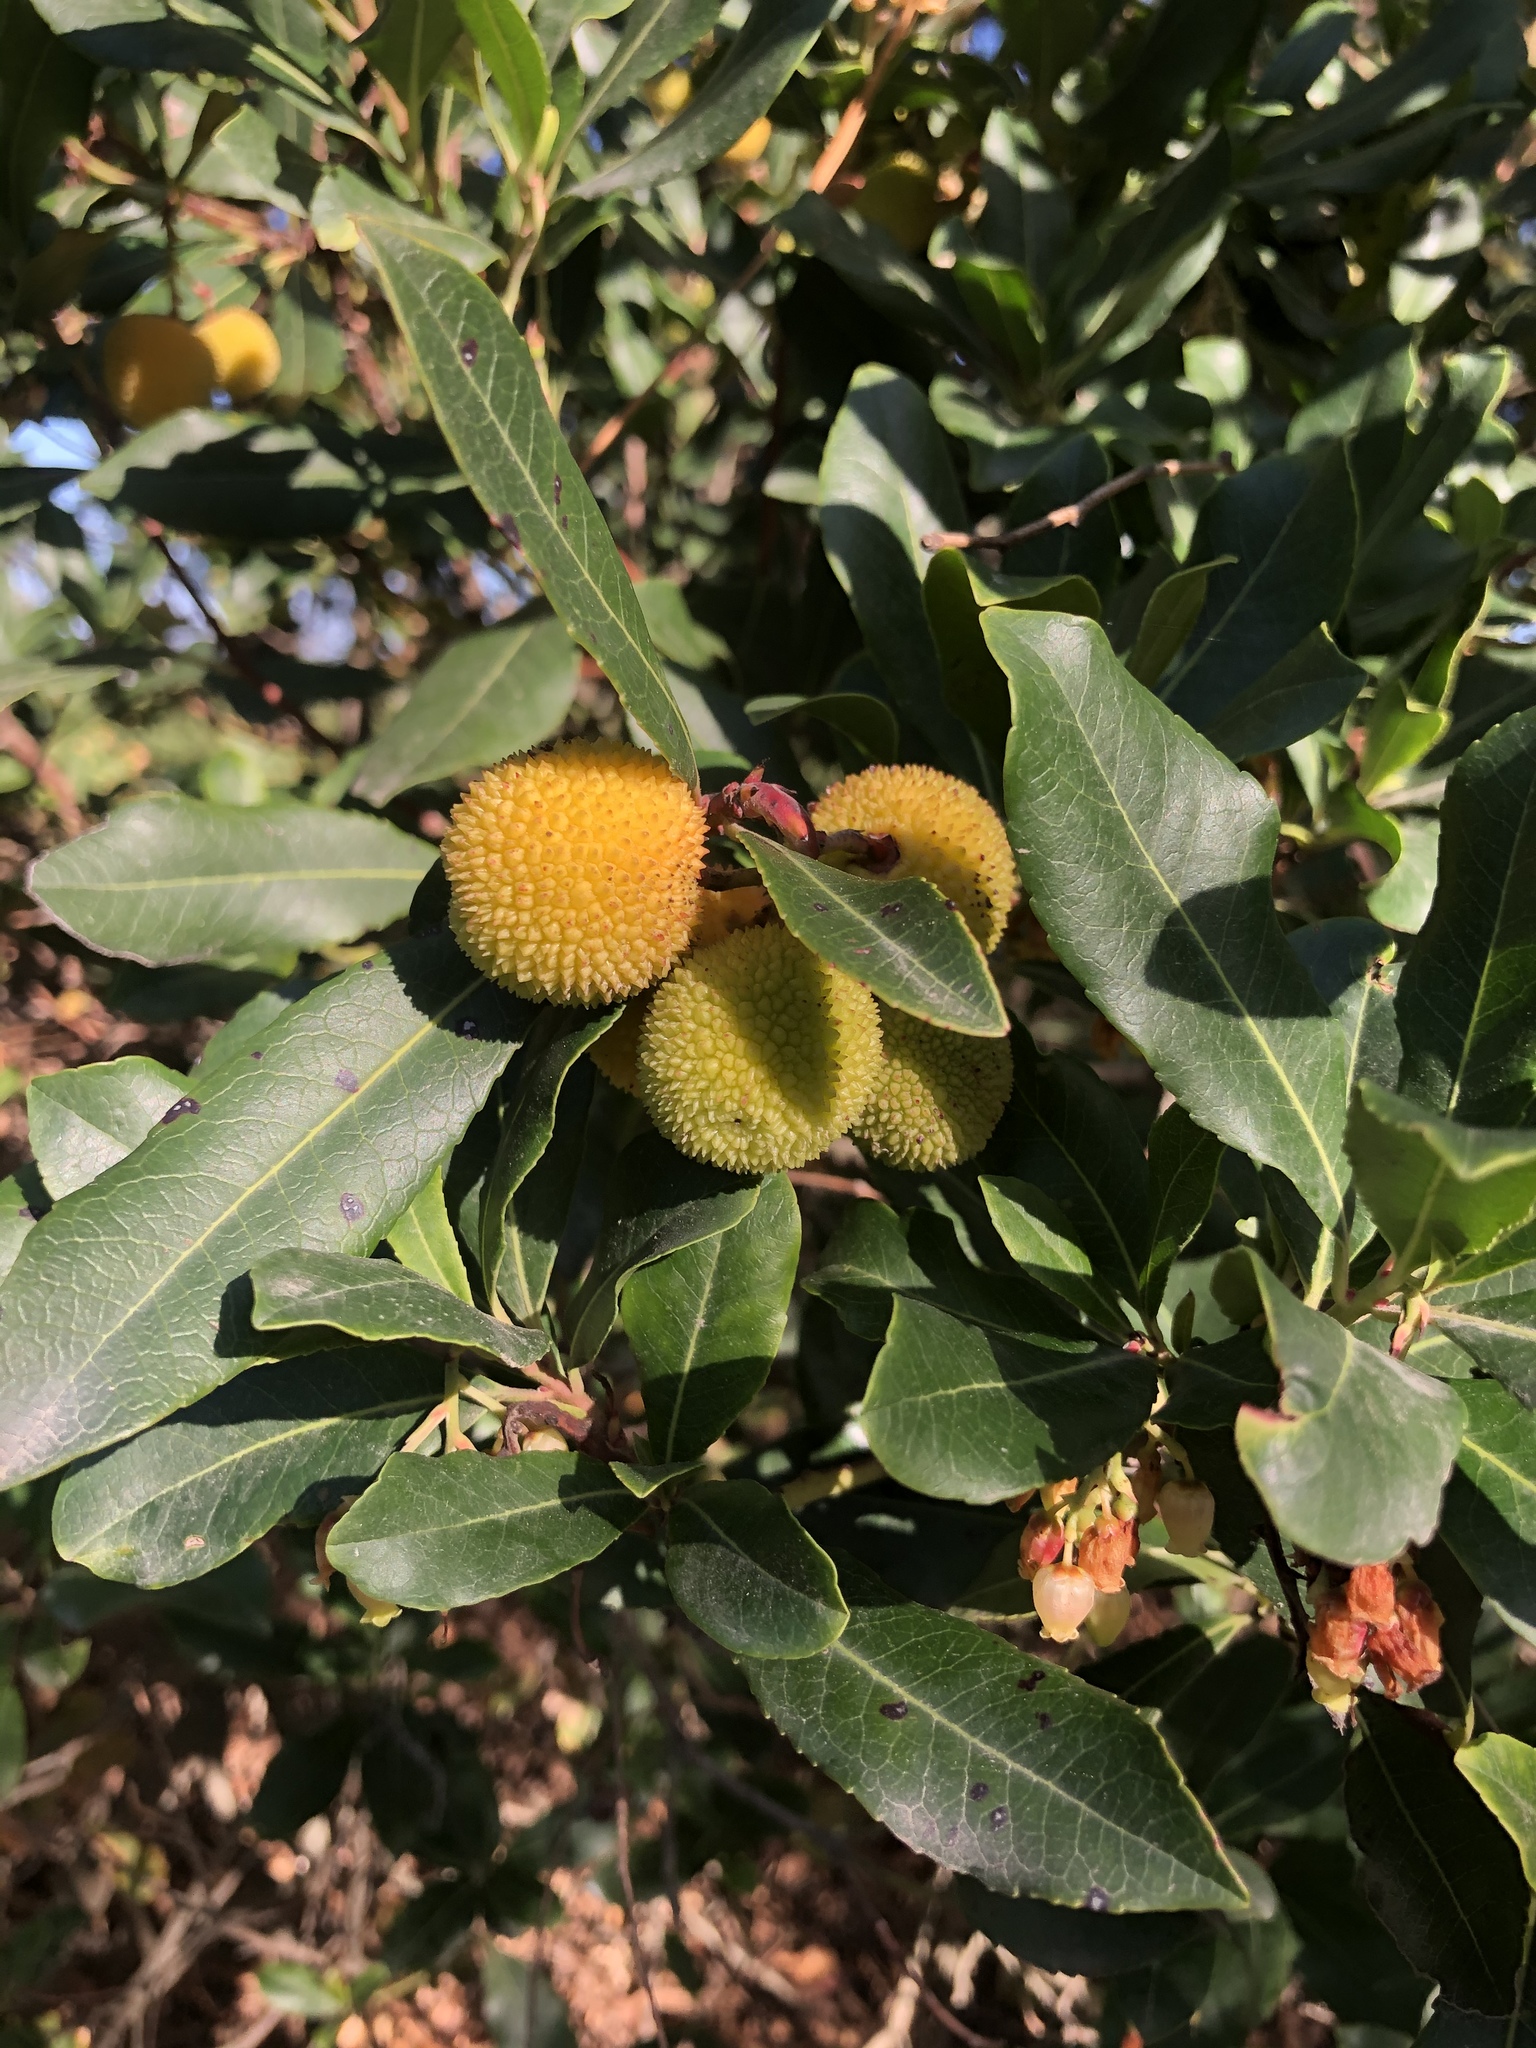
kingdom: Plantae
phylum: Tracheophyta
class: Magnoliopsida
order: Ericales
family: Ericaceae
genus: Arbutus
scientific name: Arbutus unedo
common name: Strawberry-tree
